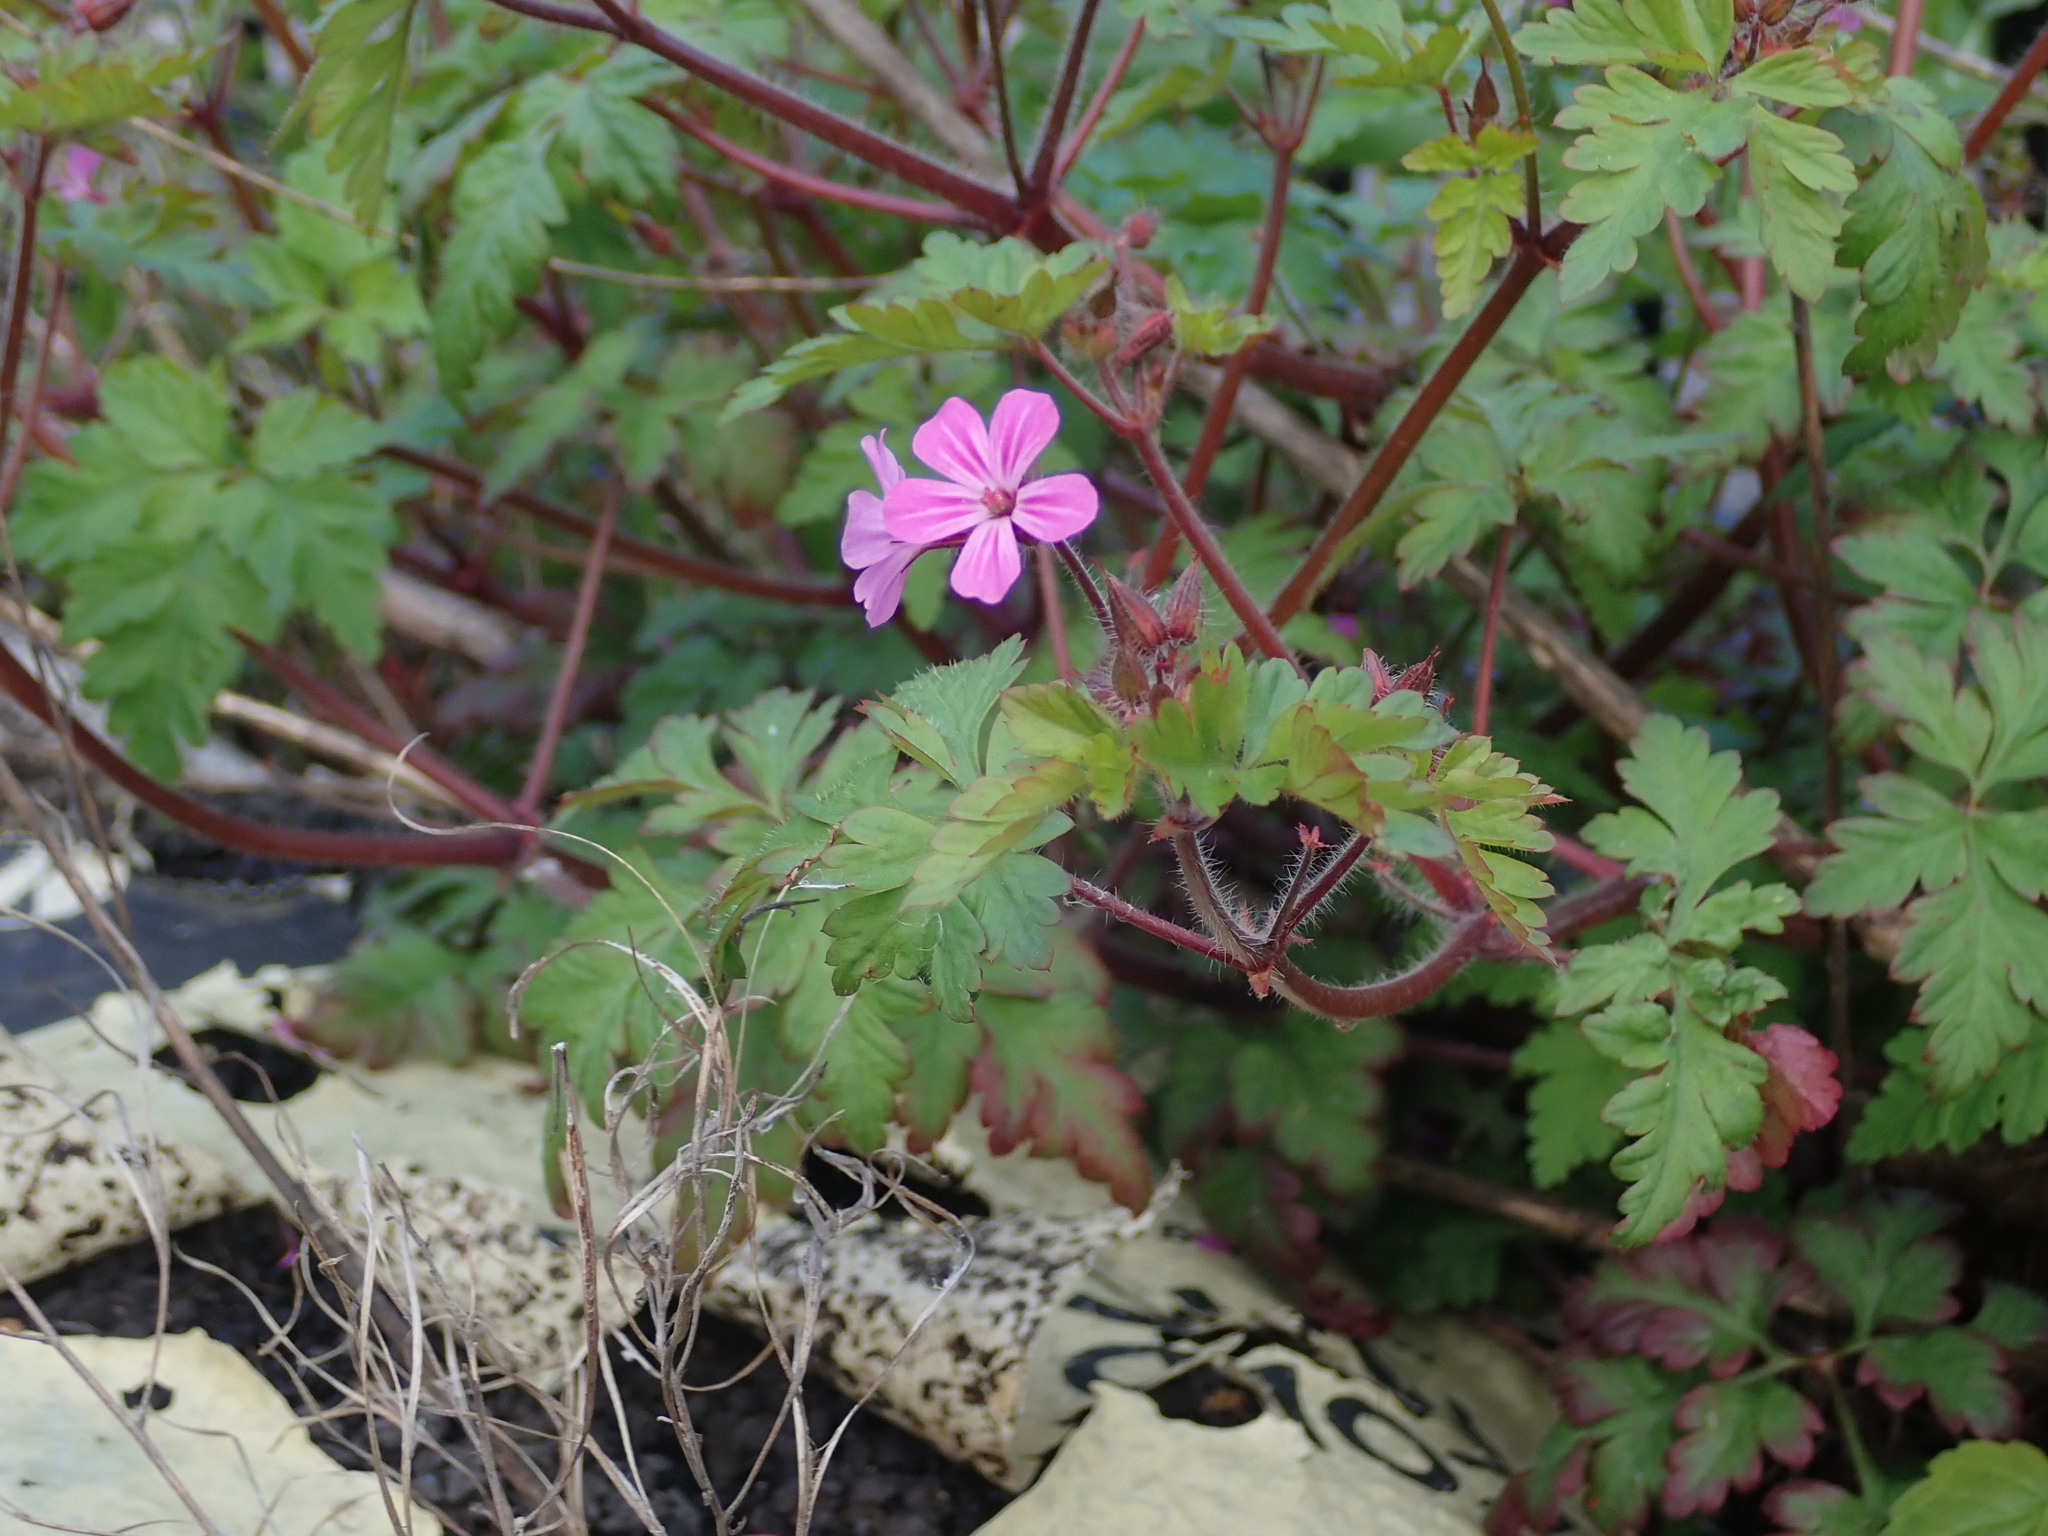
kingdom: Plantae
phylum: Tracheophyta
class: Magnoliopsida
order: Geraniales
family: Geraniaceae
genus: Geranium
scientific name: Geranium robertianum
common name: Herb-robert
